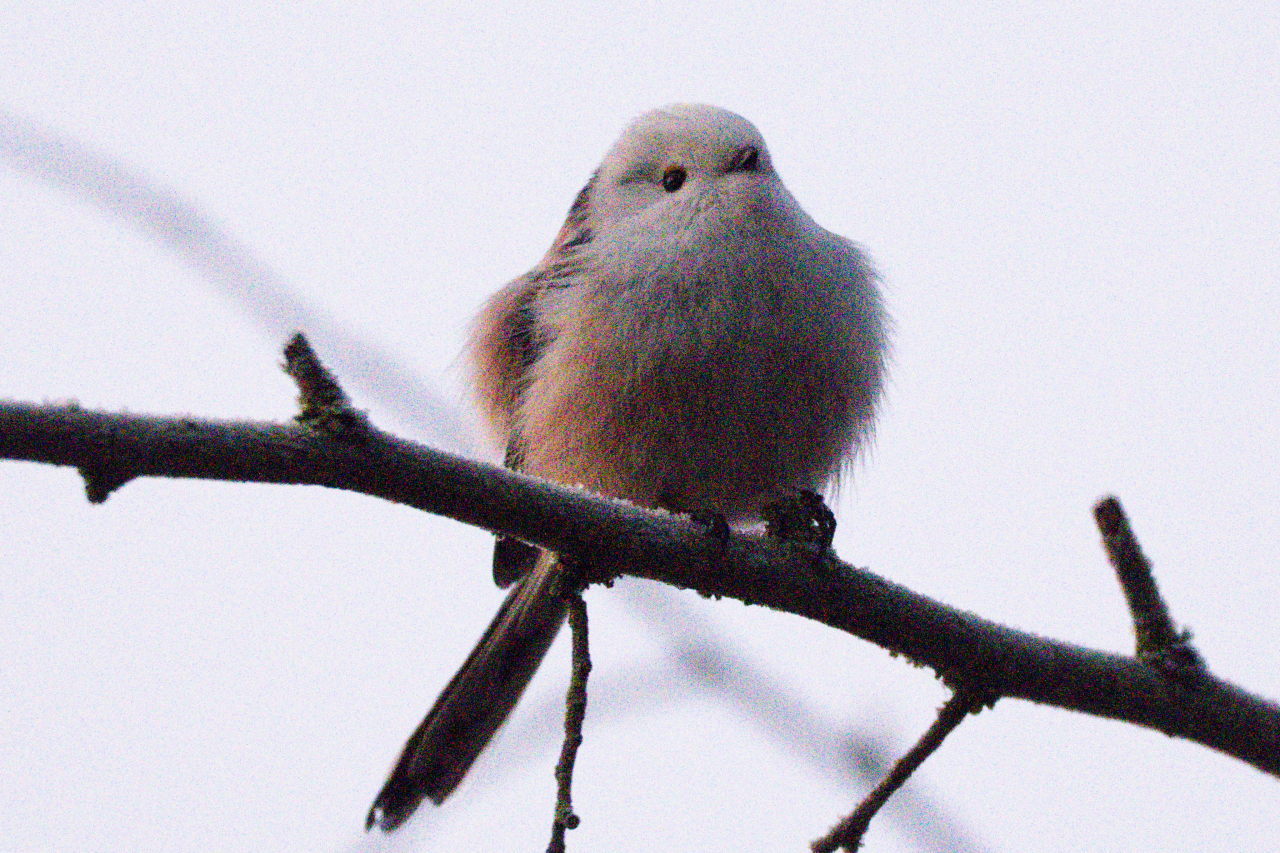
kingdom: Animalia
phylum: Chordata
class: Aves
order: Passeriformes
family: Aegithalidae
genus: Aegithalos
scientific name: Aegithalos caudatus
